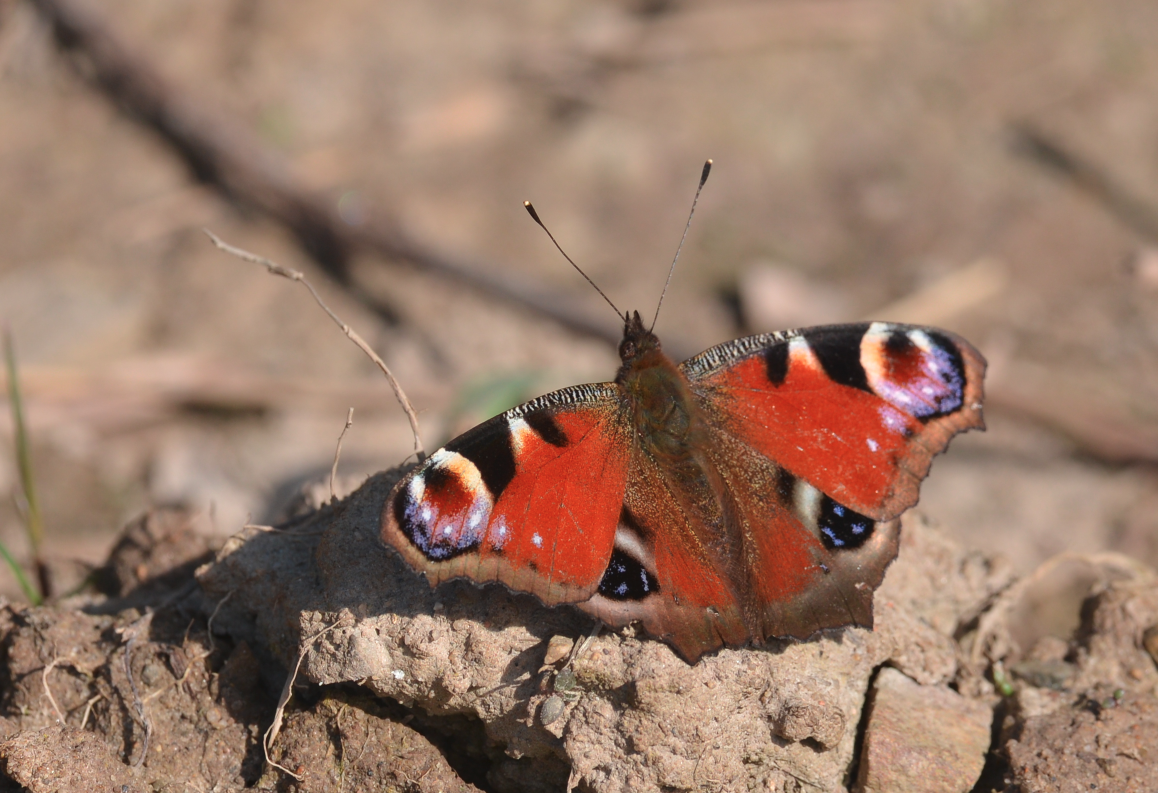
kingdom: Animalia
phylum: Arthropoda
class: Insecta
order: Lepidoptera
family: Nymphalidae
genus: Aglais
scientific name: Aglais io
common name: Peacock
